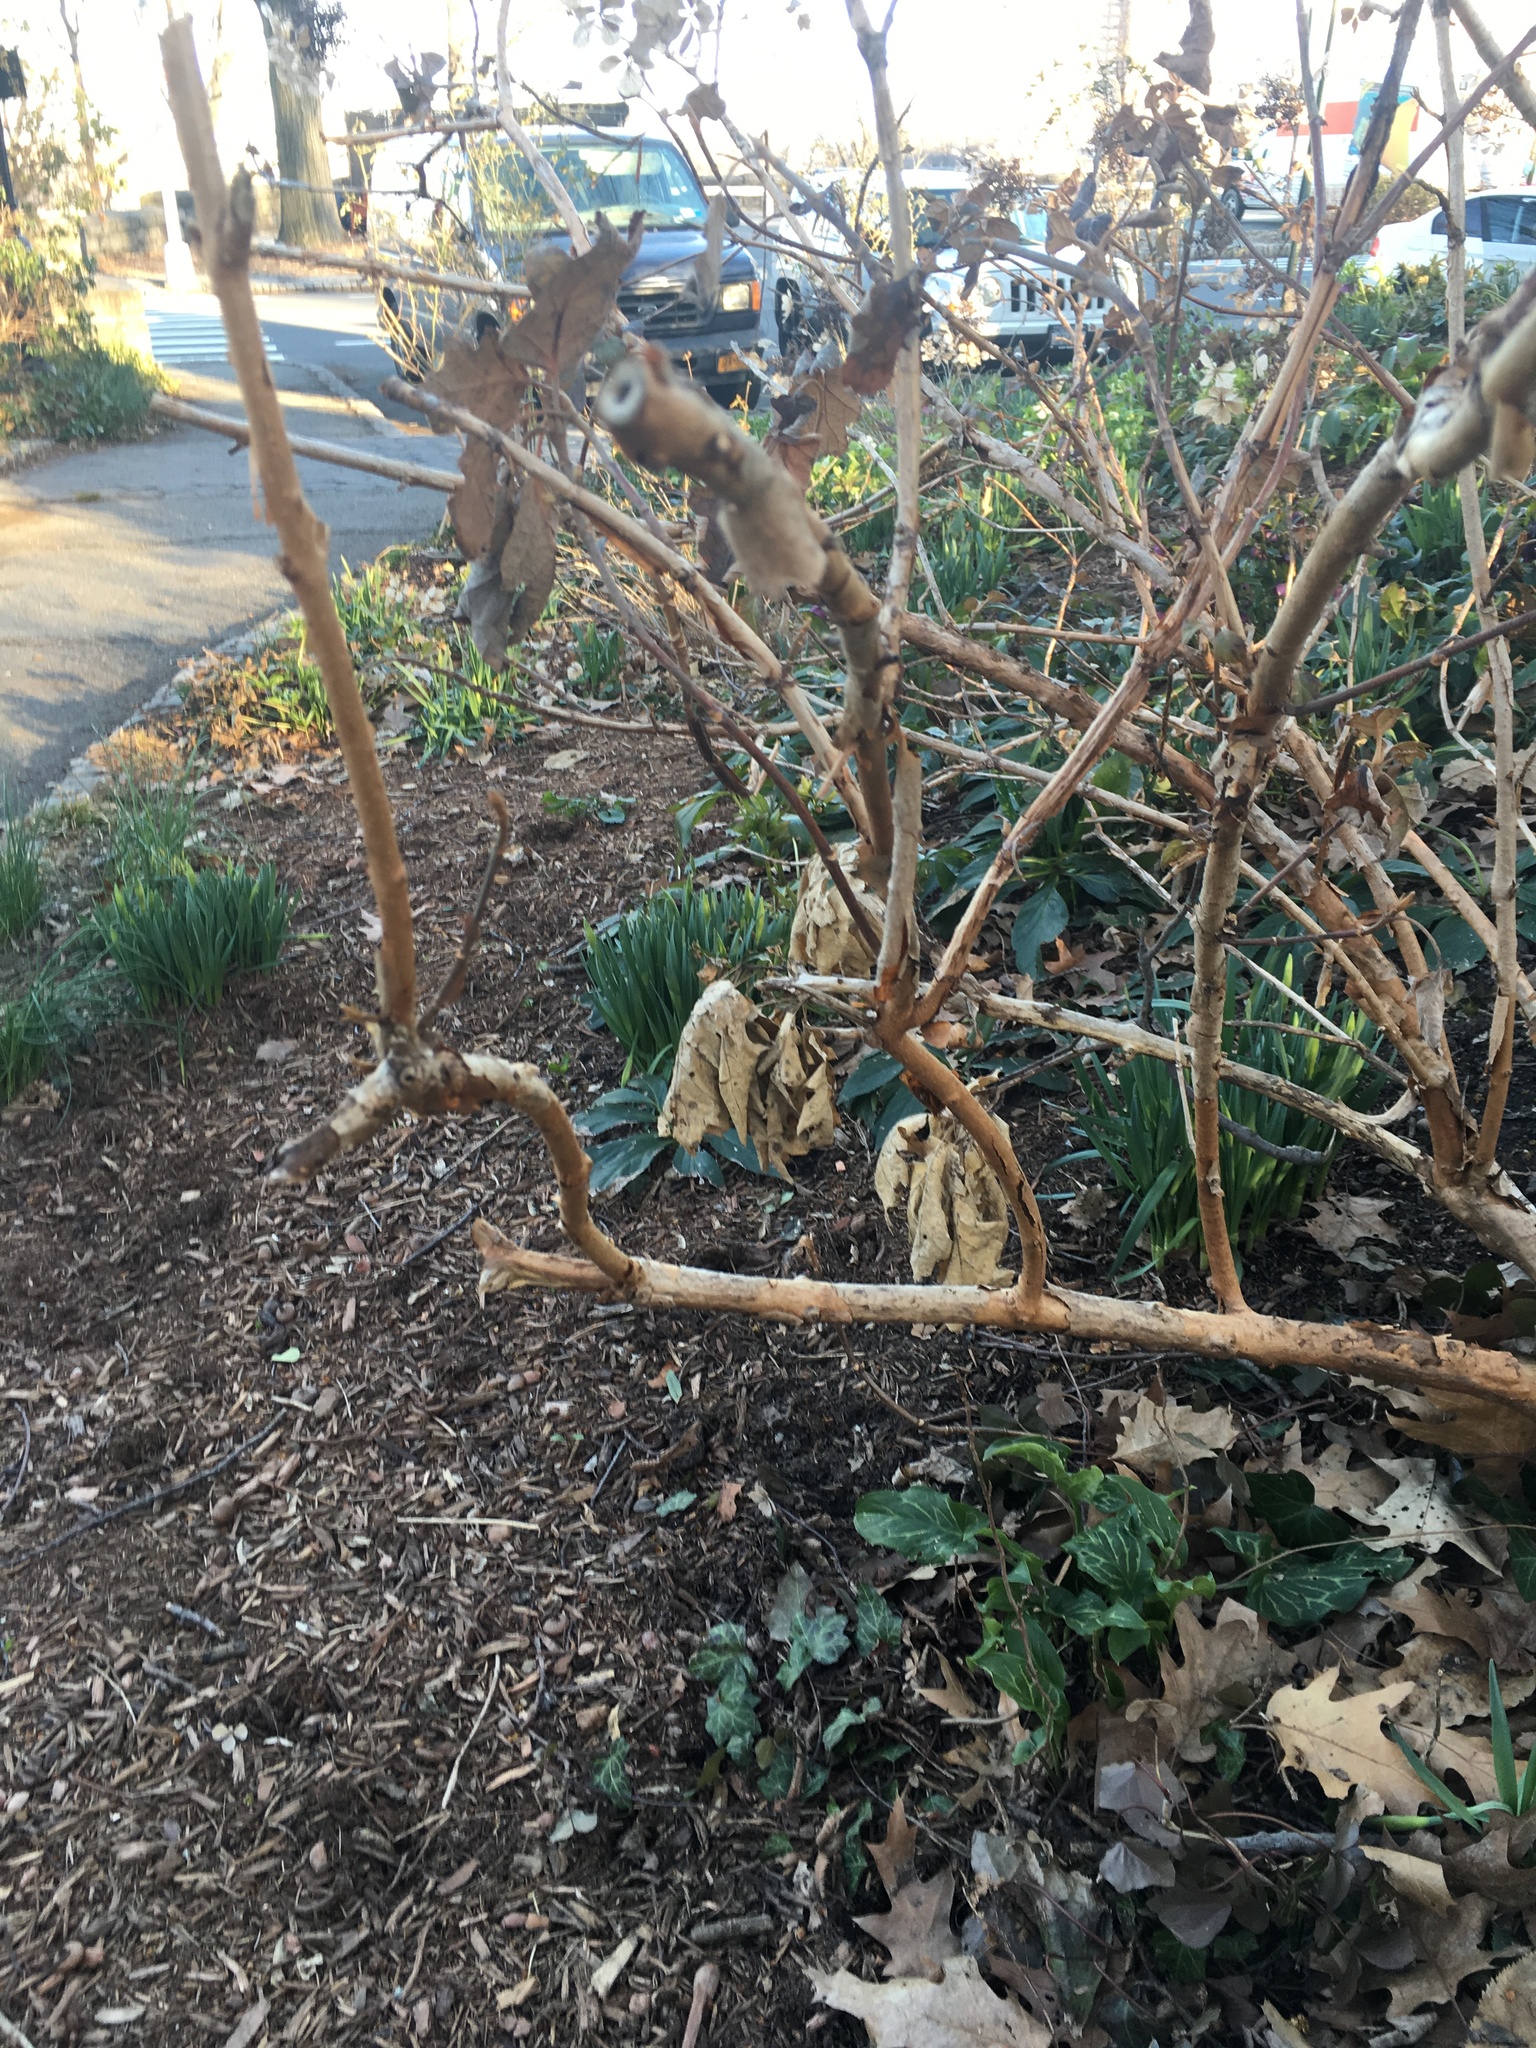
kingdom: Plantae
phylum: Tracheophyta
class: Liliopsida
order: Alismatales
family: Araceae
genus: Arum
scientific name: Arum italicum
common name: Italian lords-and-ladies
